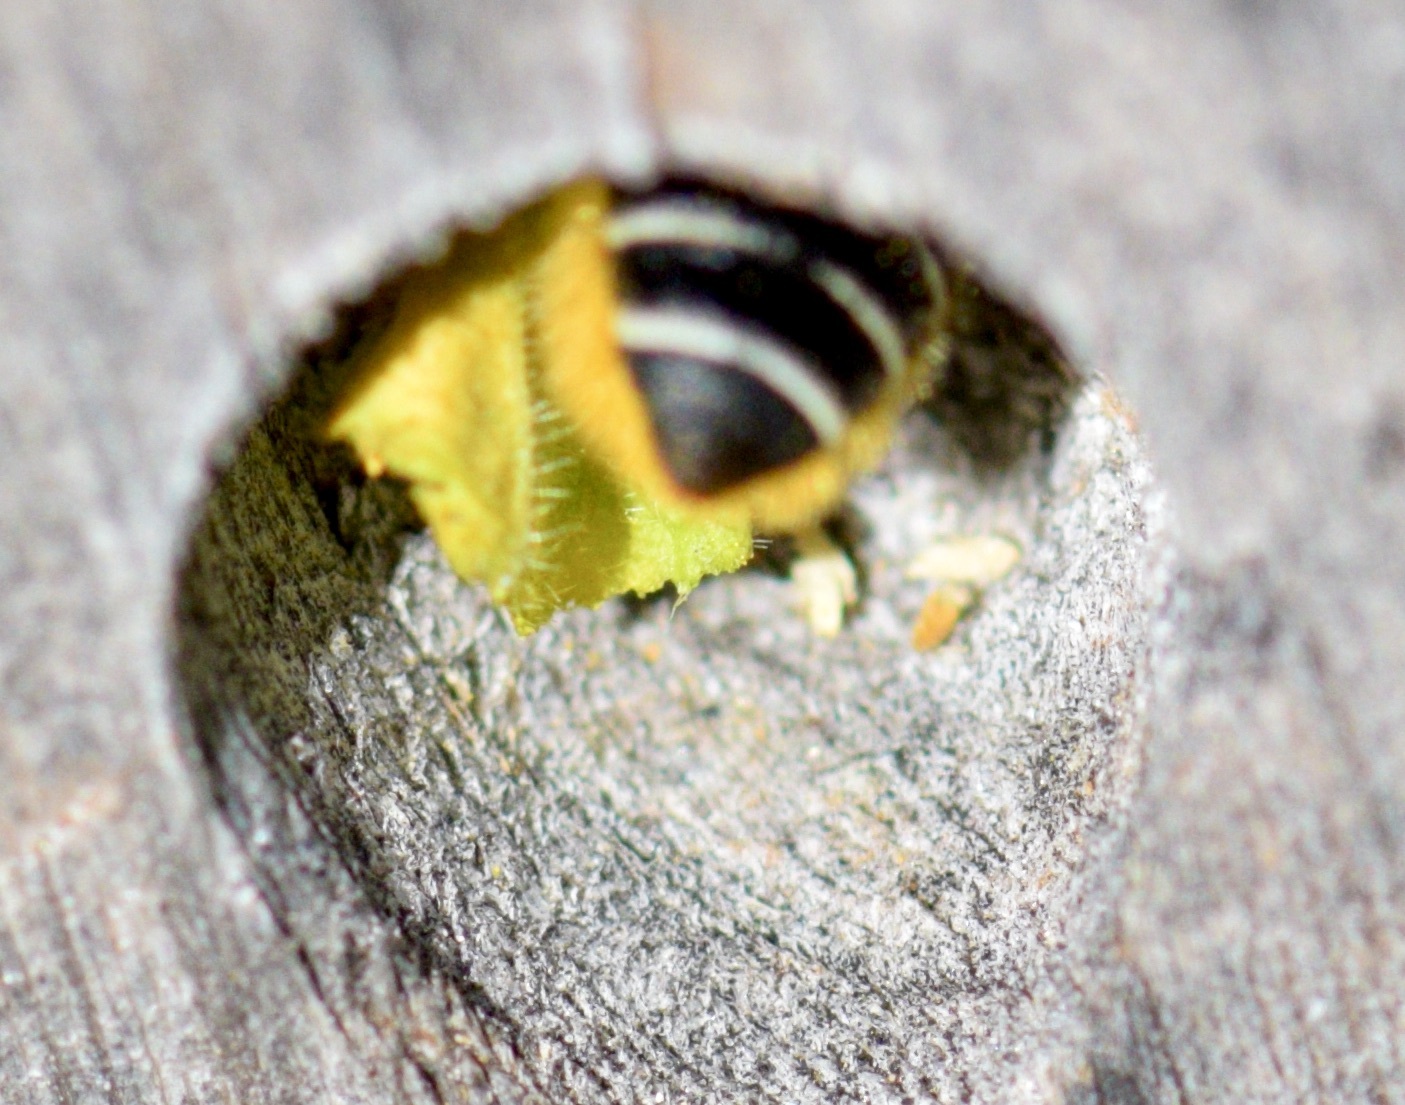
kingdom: Animalia
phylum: Arthropoda
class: Insecta
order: Hymenoptera
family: Megachilidae
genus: Megachile
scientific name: Megachile relativa
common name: Golden-tailed leafcutter
